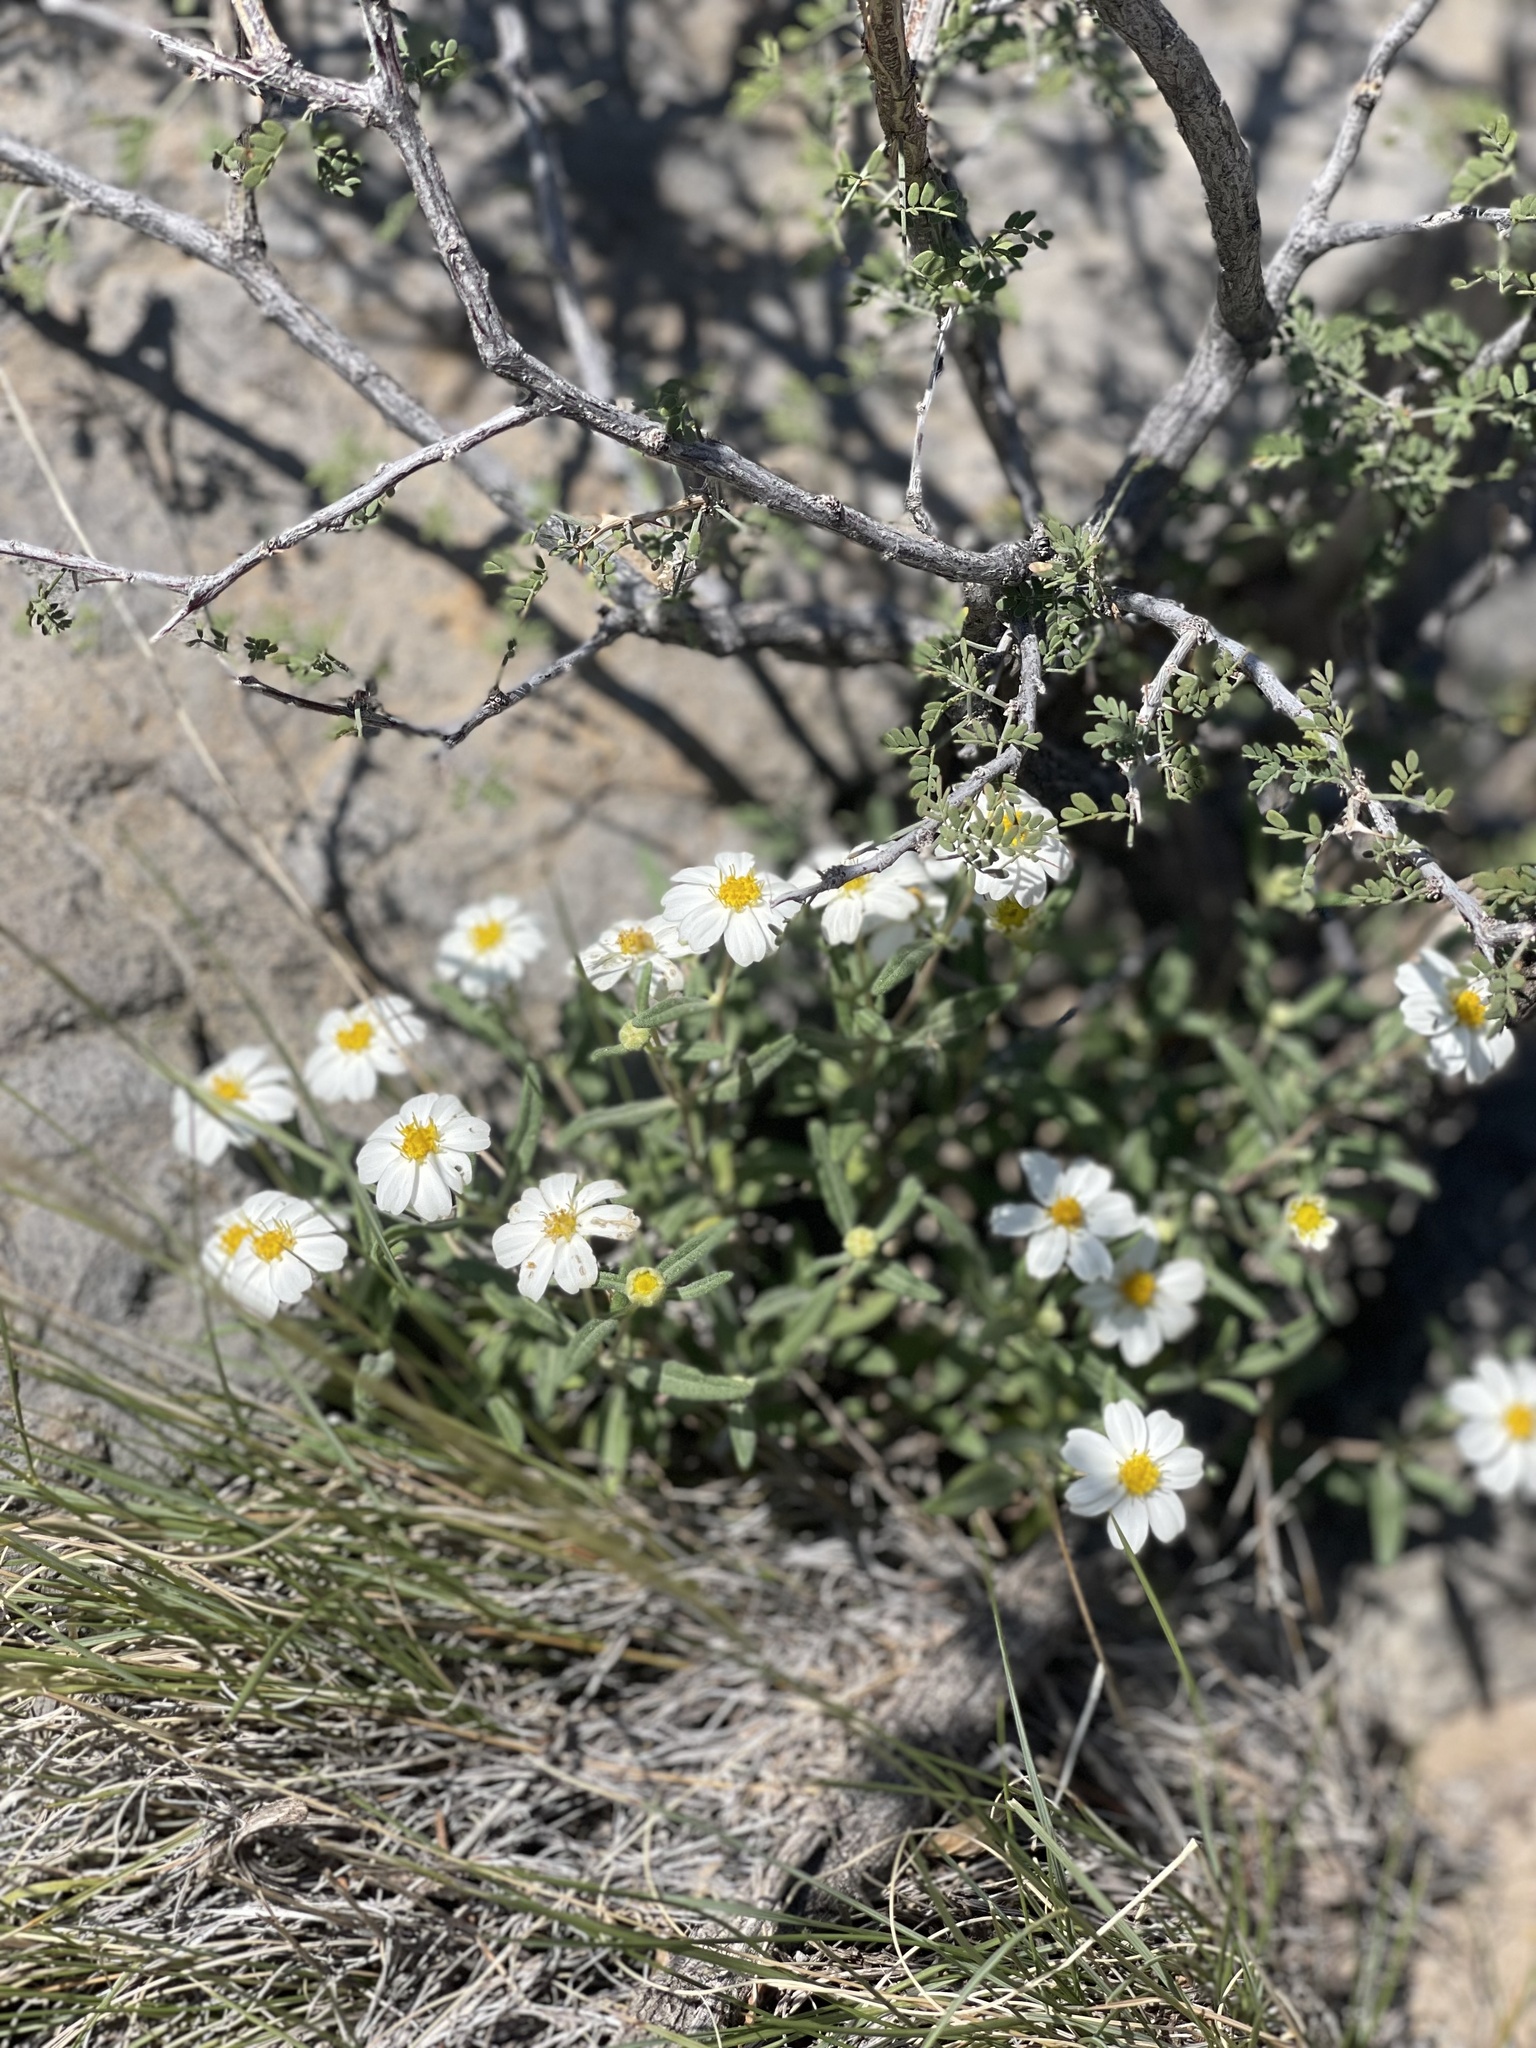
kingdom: Plantae
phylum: Tracheophyta
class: Magnoliopsida
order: Asterales
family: Asteraceae
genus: Melampodium
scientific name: Melampodium leucanthum
